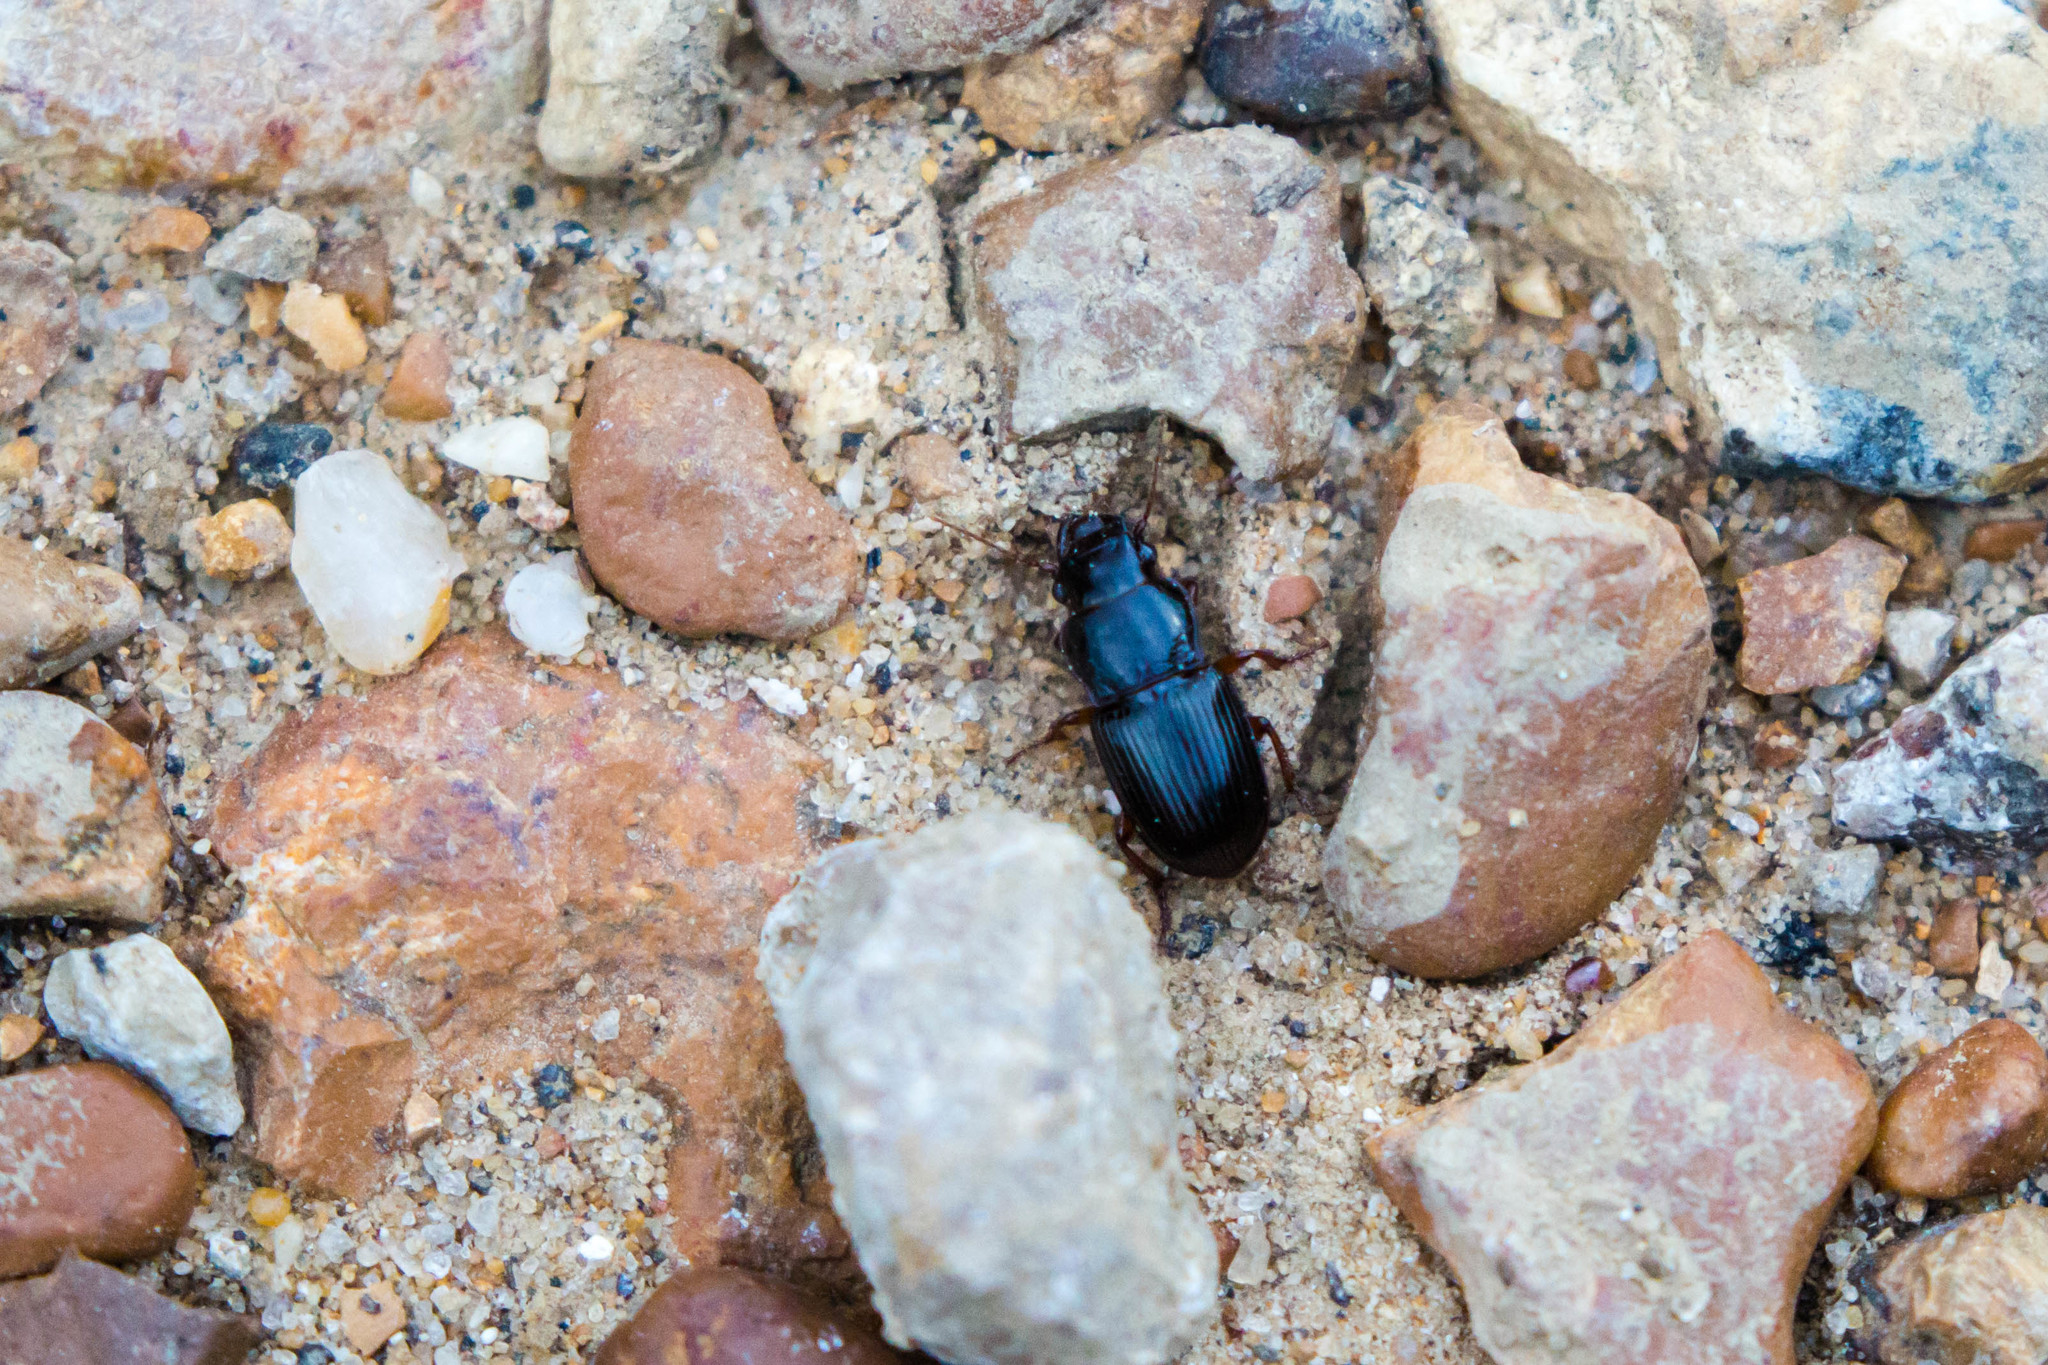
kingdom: Animalia
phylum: Arthropoda
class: Insecta
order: Coleoptera
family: Carabidae
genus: Cratacanthus
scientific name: Cratacanthus dubius
